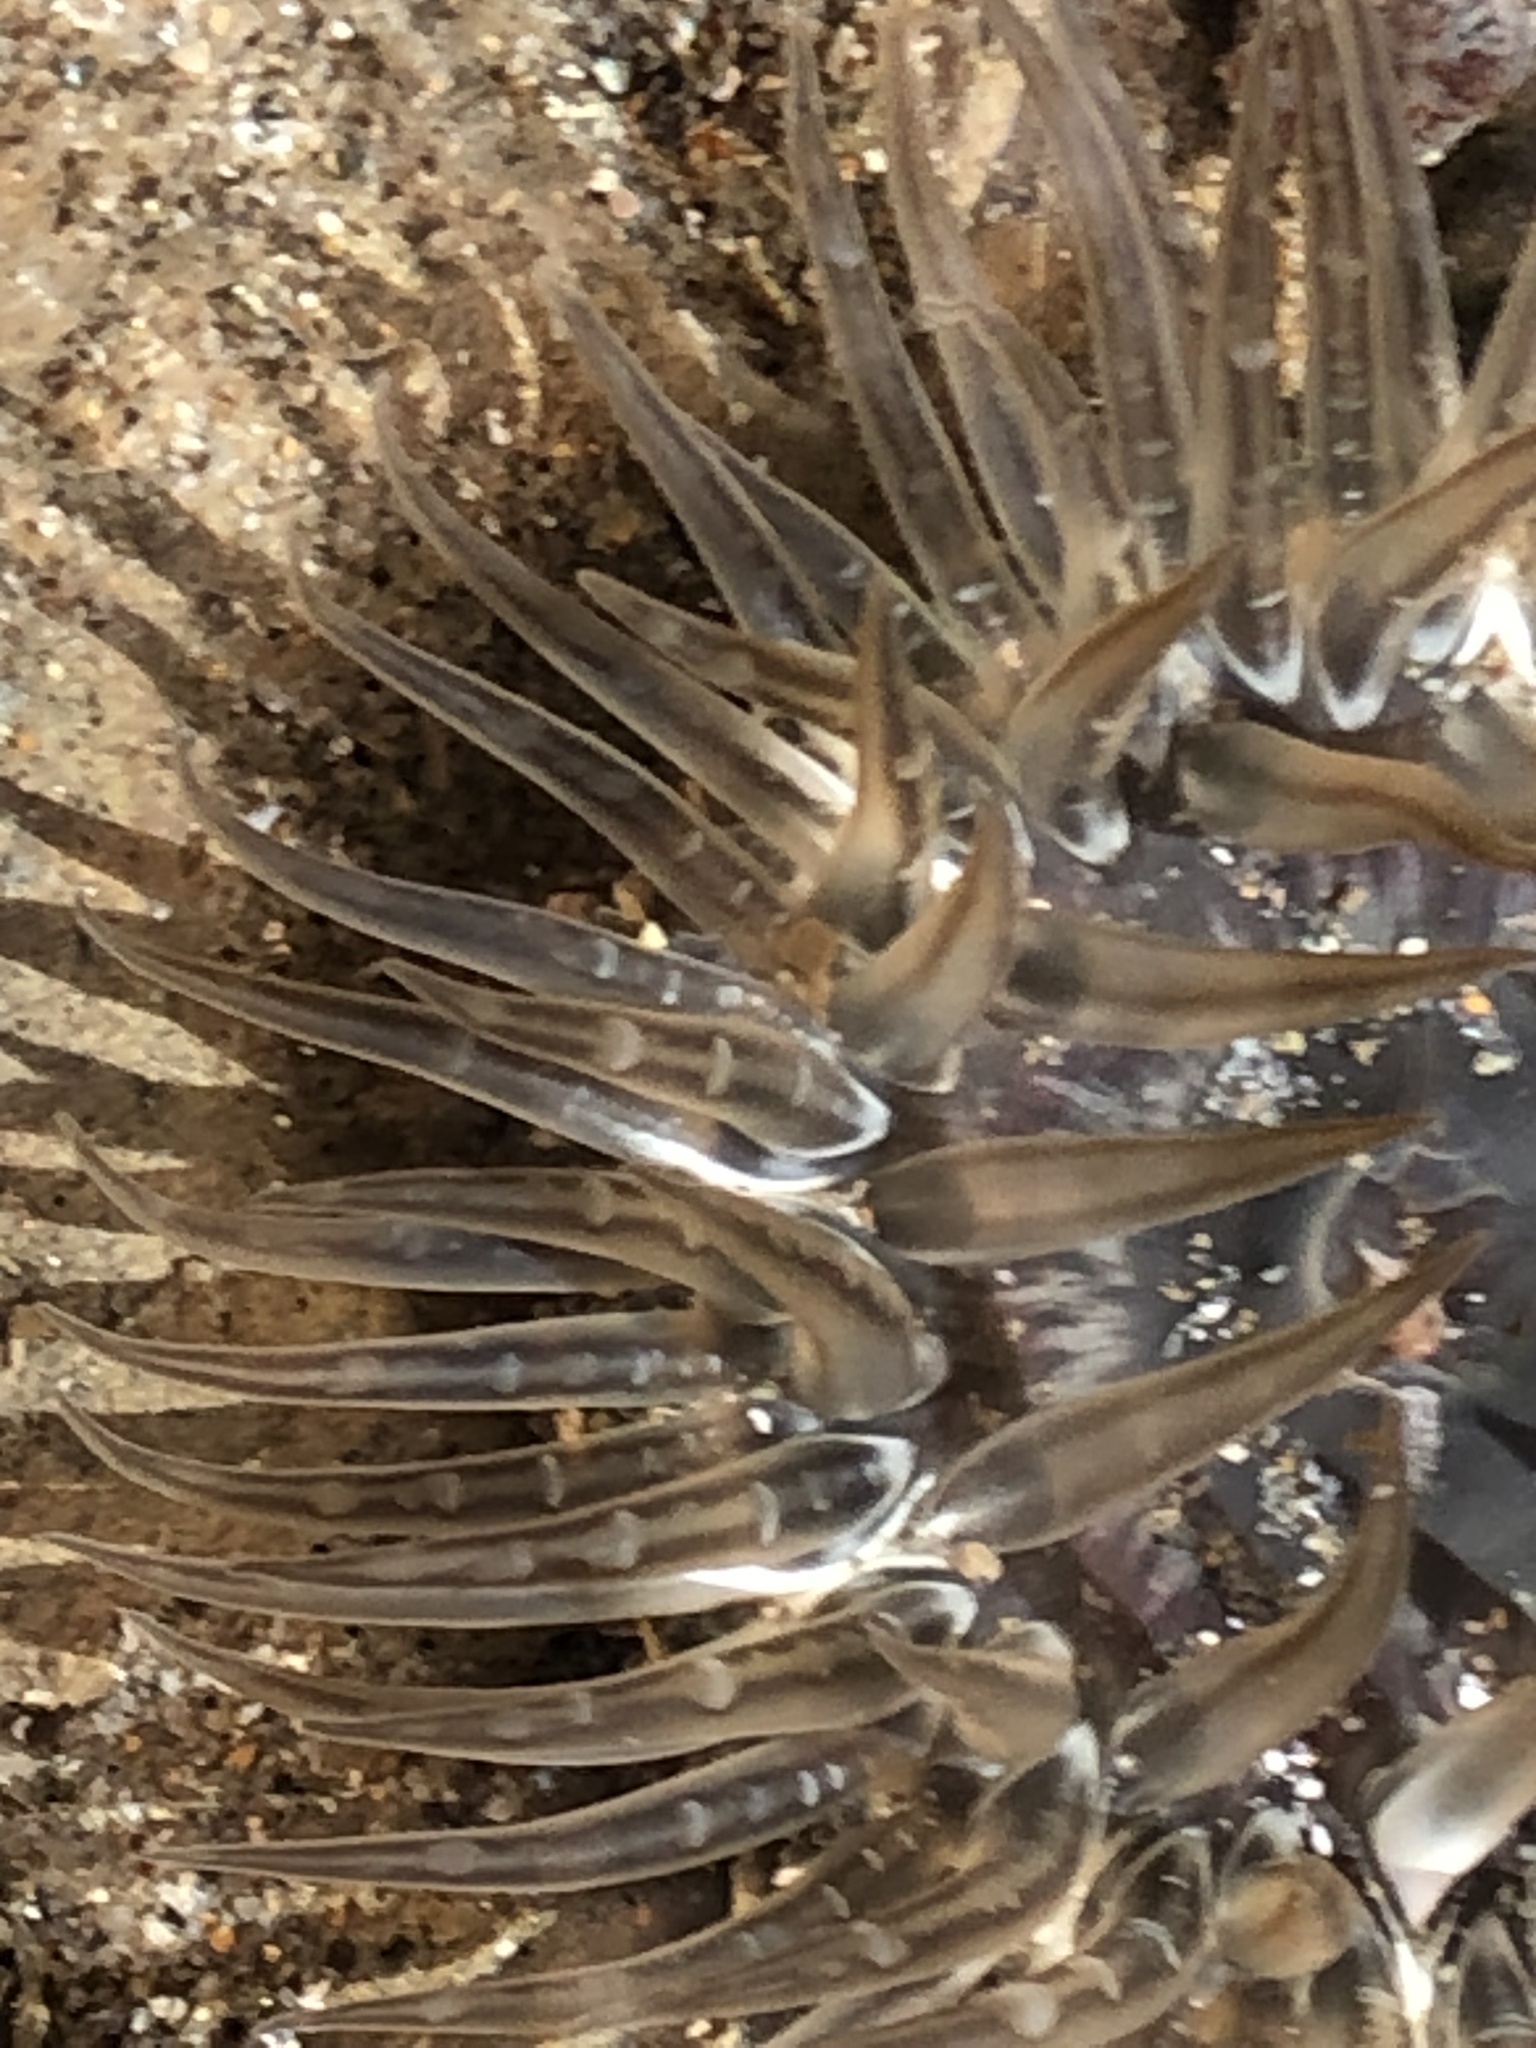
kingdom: Animalia
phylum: Cnidaria
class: Anthozoa
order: Actiniaria
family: Actiniidae
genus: Anthopleura
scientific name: Anthopleura artemisia
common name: Buried sea anemone
